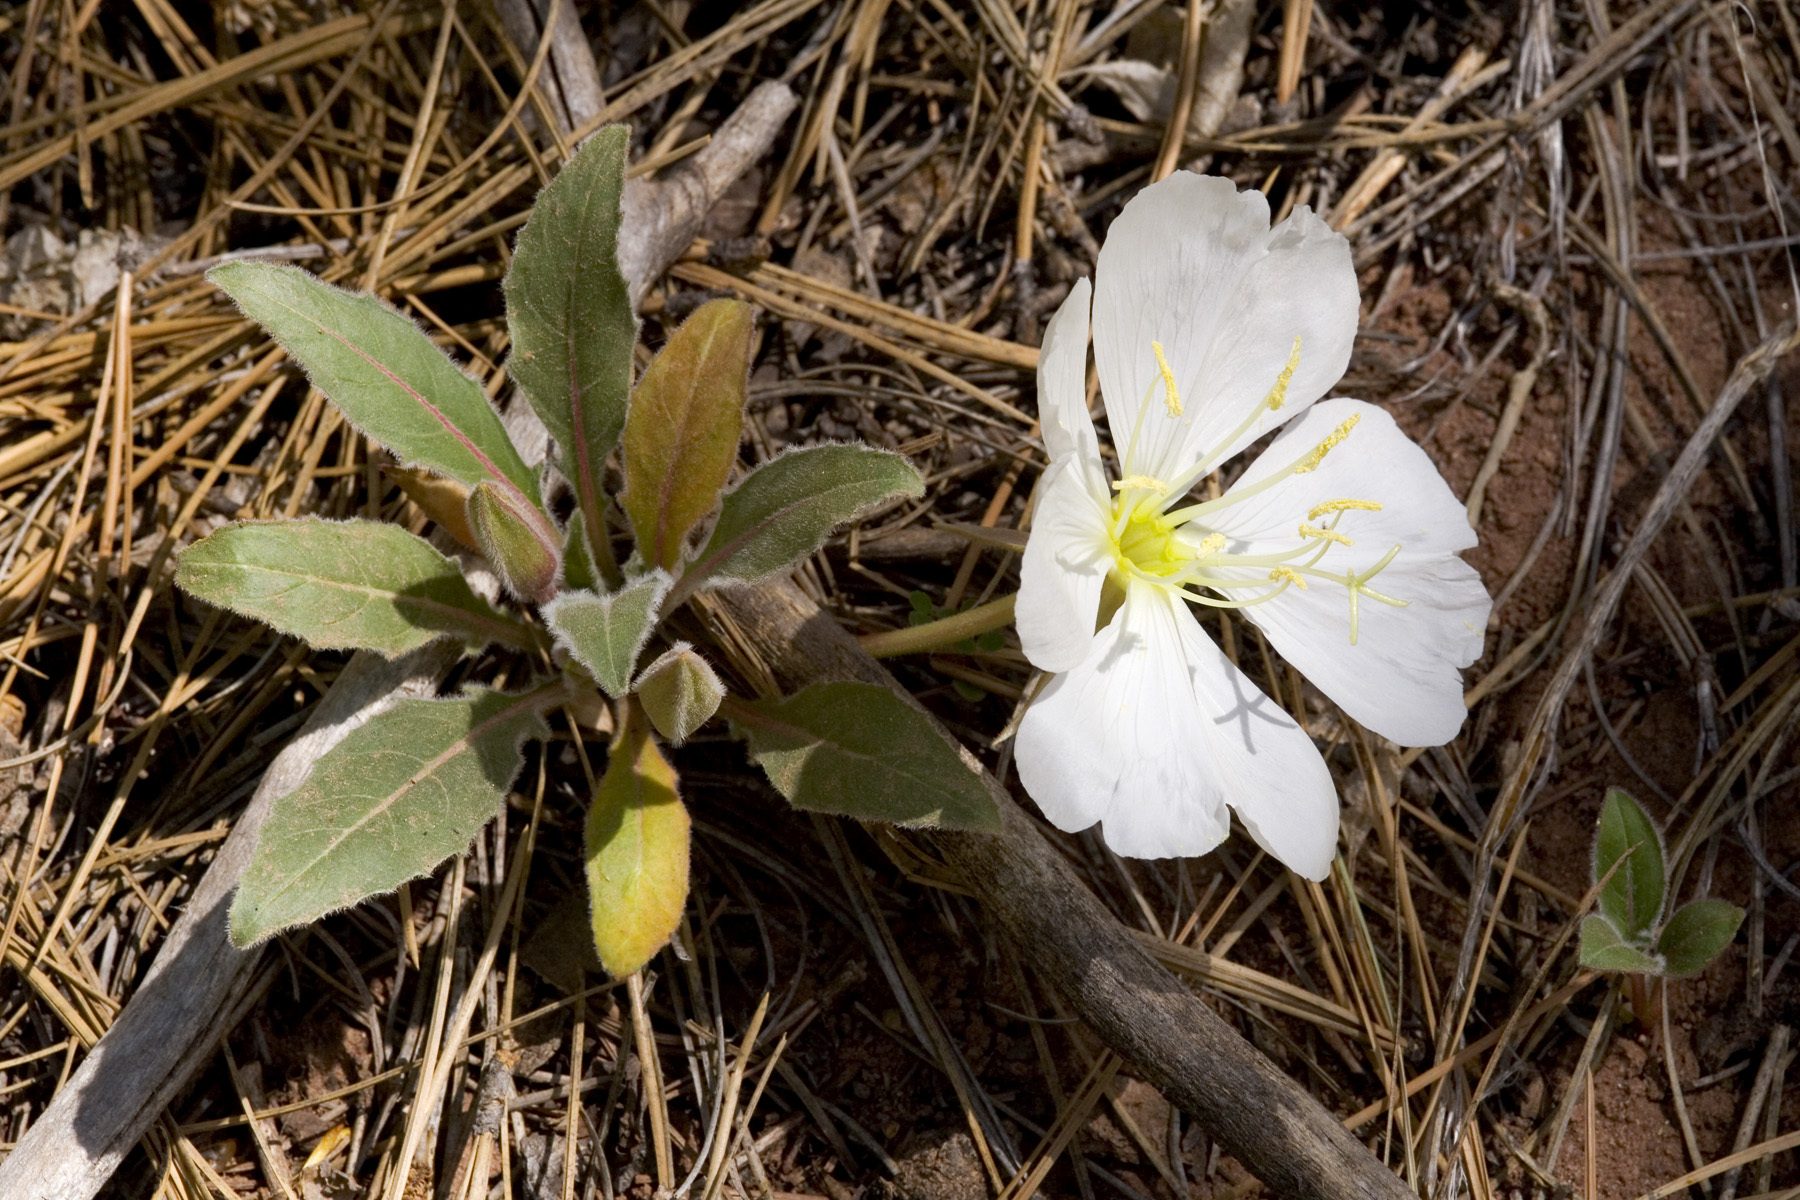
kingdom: Plantae
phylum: Tracheophyta
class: Magnoliopsida
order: Myrtales
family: Onagraceae
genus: Oenothera
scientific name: Oenothera cespitosa
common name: Tufted evening-primrose
